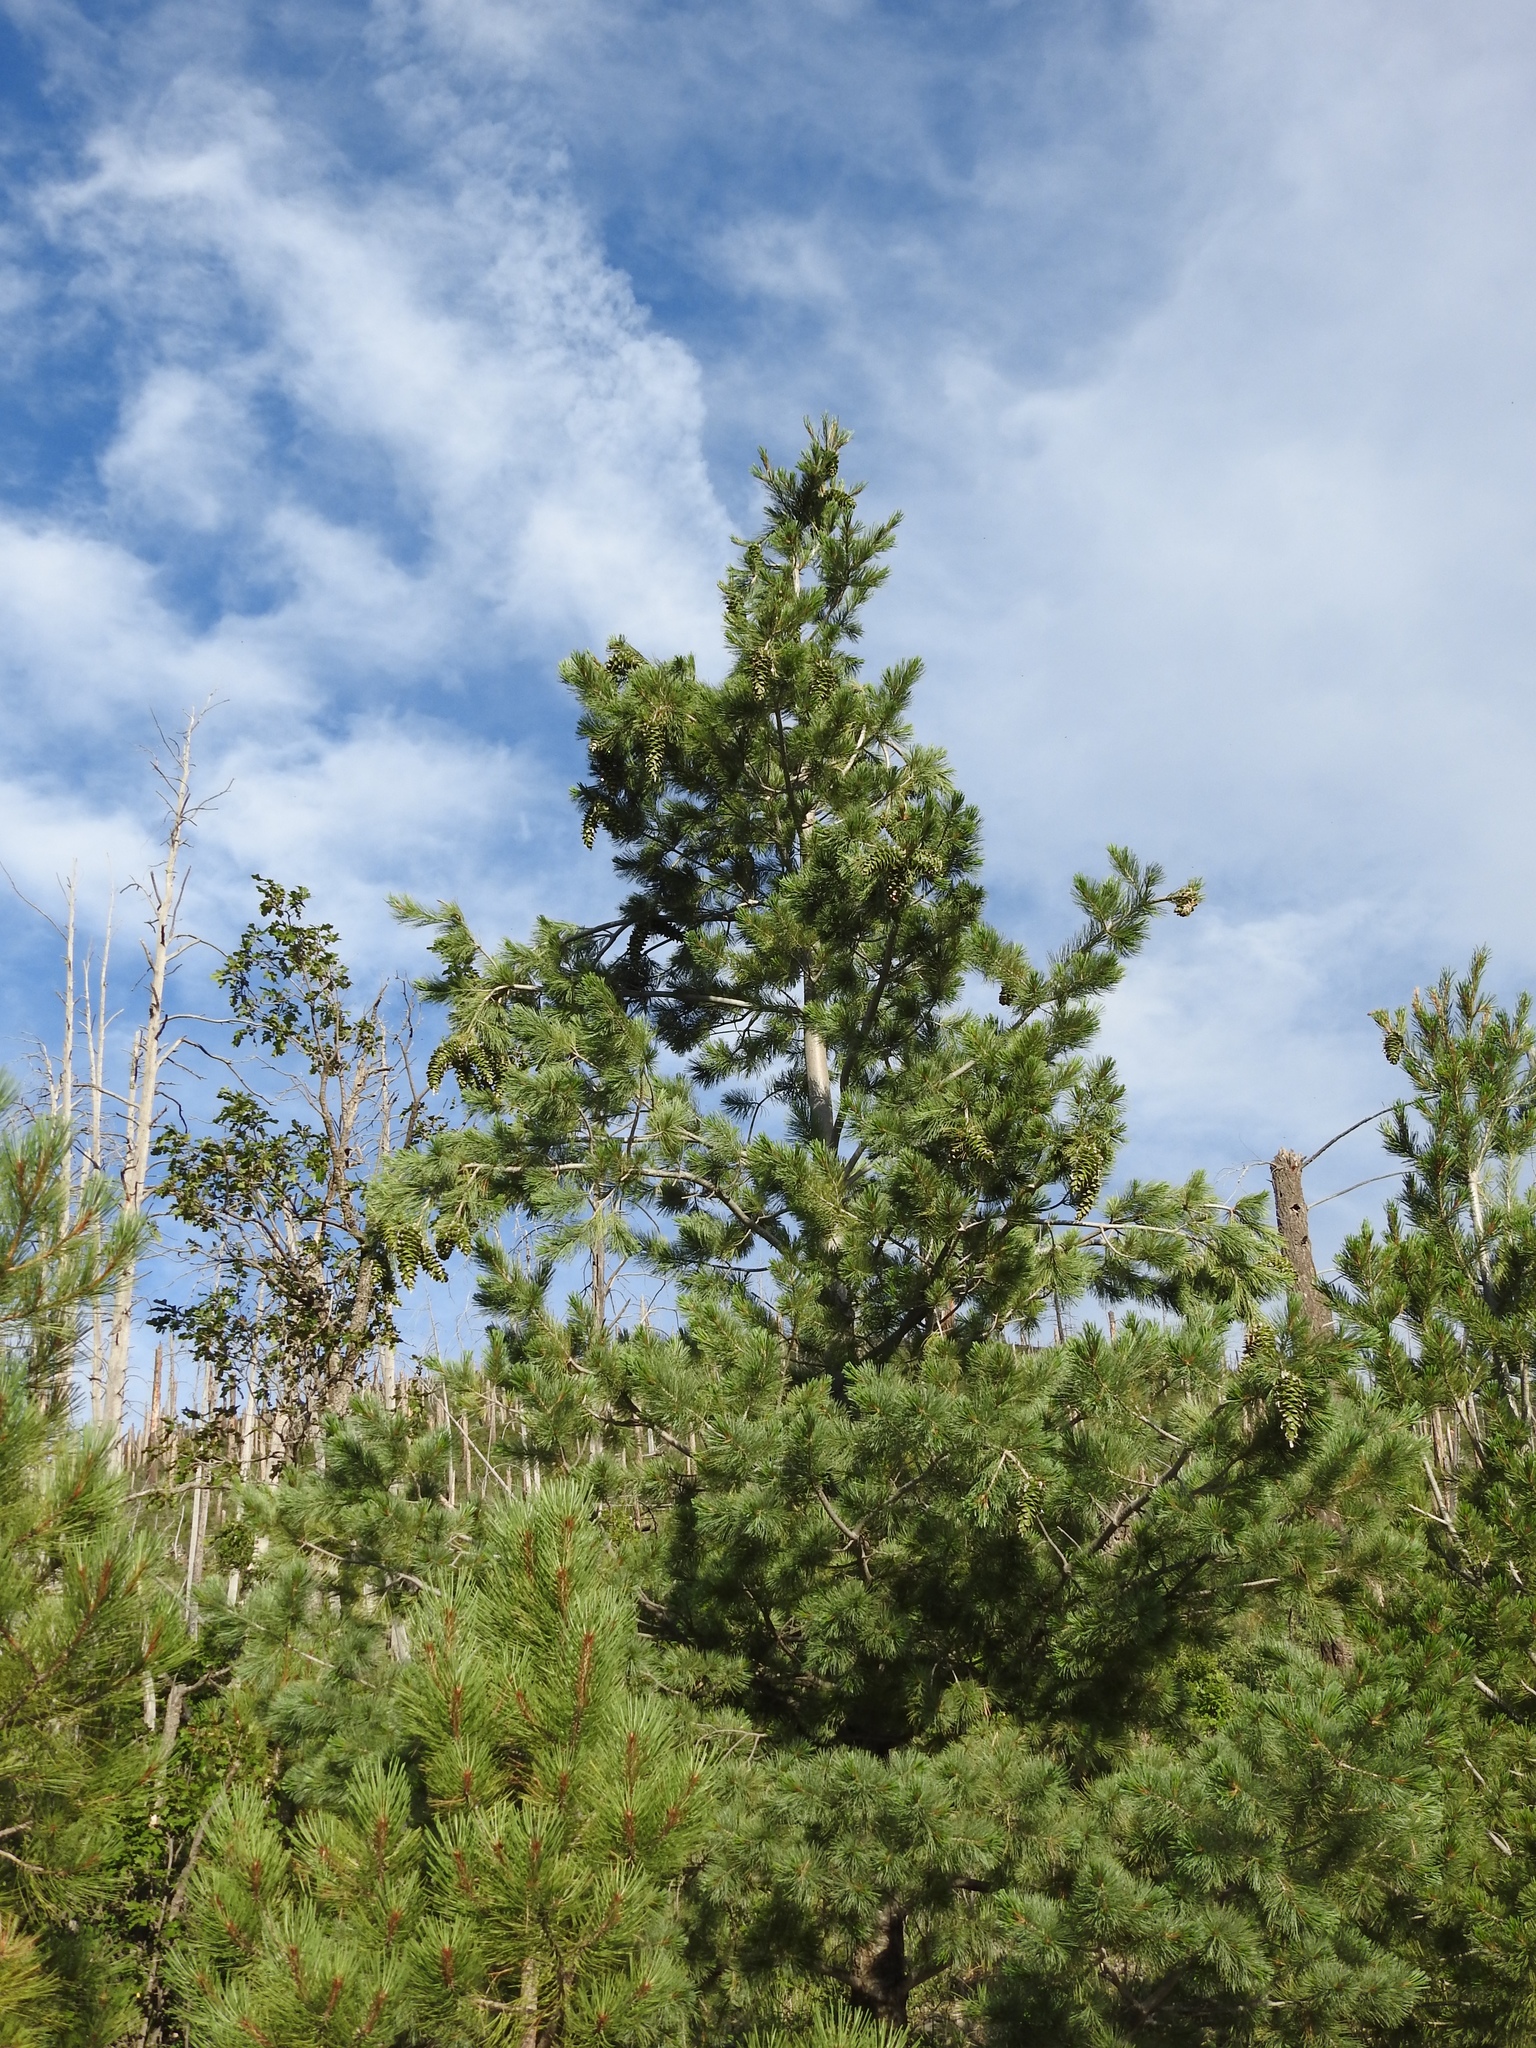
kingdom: Plantae
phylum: Tracheophyta
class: Pinopsida
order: Pinales
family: Pinaceae
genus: Pinus
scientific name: Pinus strobiformis
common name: Southwestern white pine
